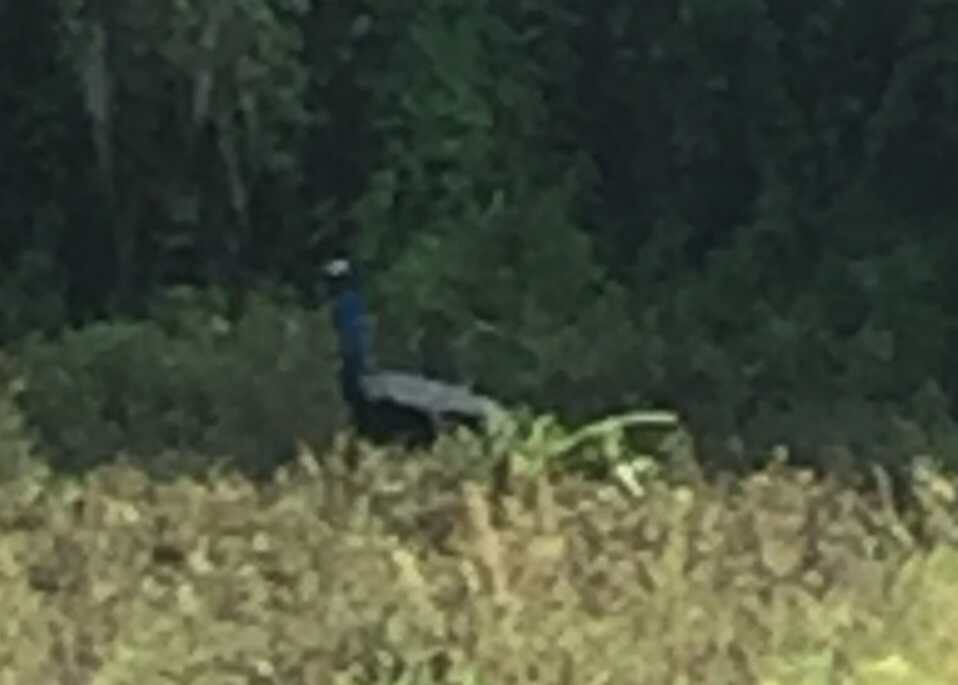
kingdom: Animalia
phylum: Chordata
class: Aves
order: Galliformes
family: Phasianidae
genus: Pavo
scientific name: Pavo cristatus
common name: Indian peafowl
